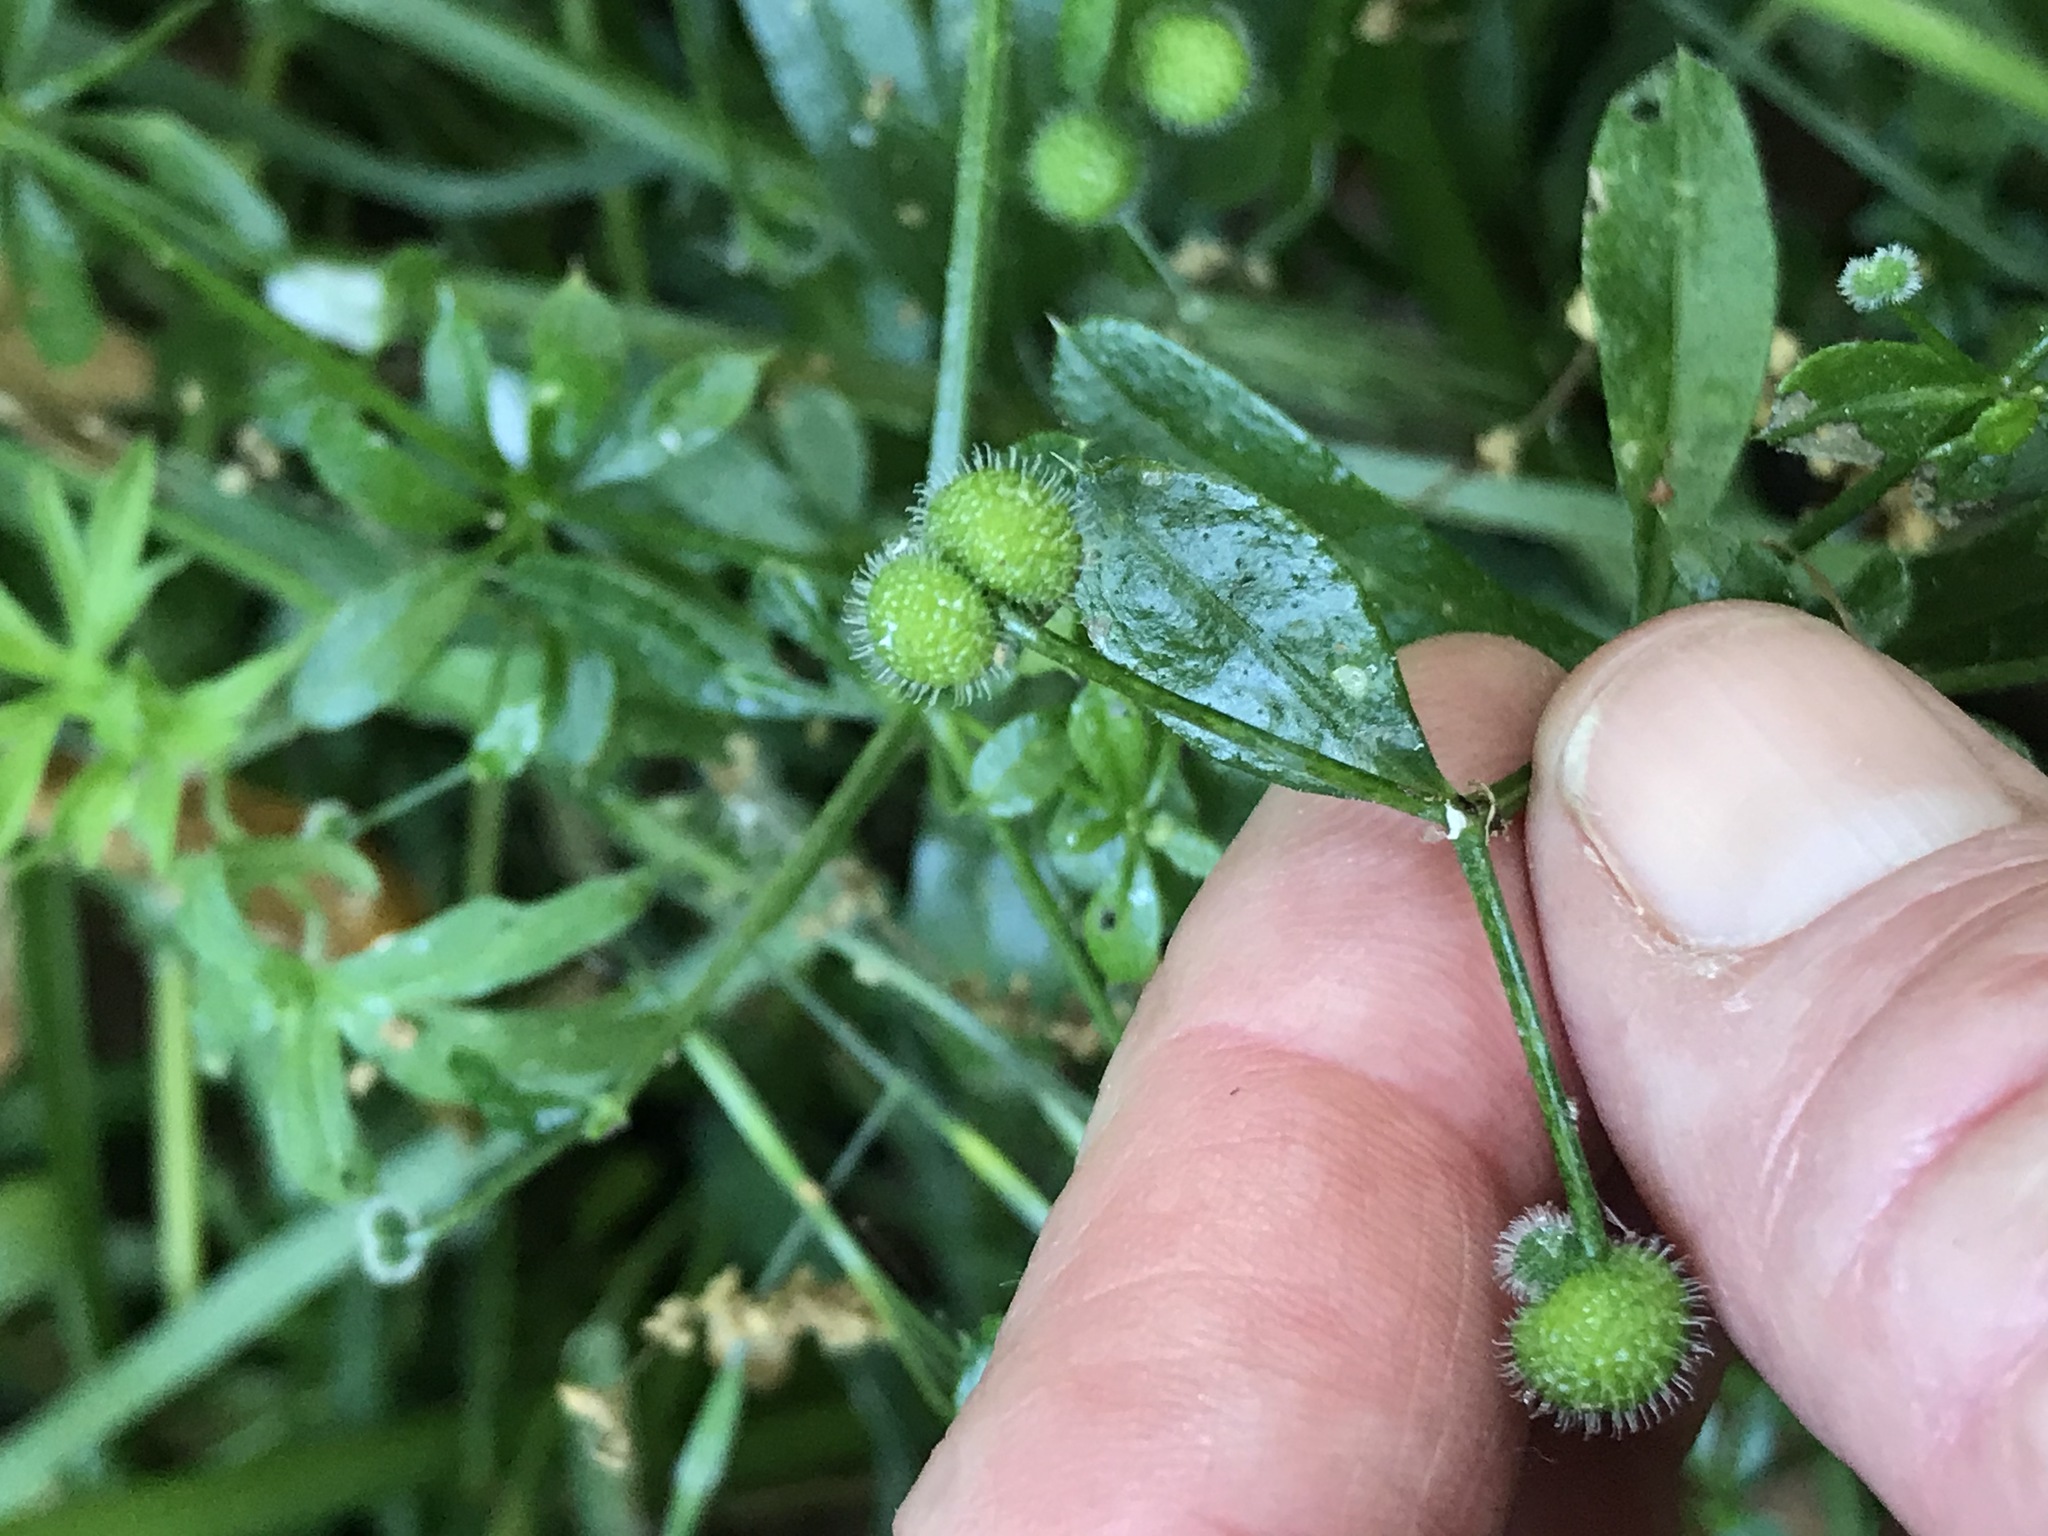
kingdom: Plantae
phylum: Tracheophyta
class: Magnoliopsida
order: Gentianales
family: Rubiaceae
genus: Galium
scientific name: Galium aparine
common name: Cleavers
